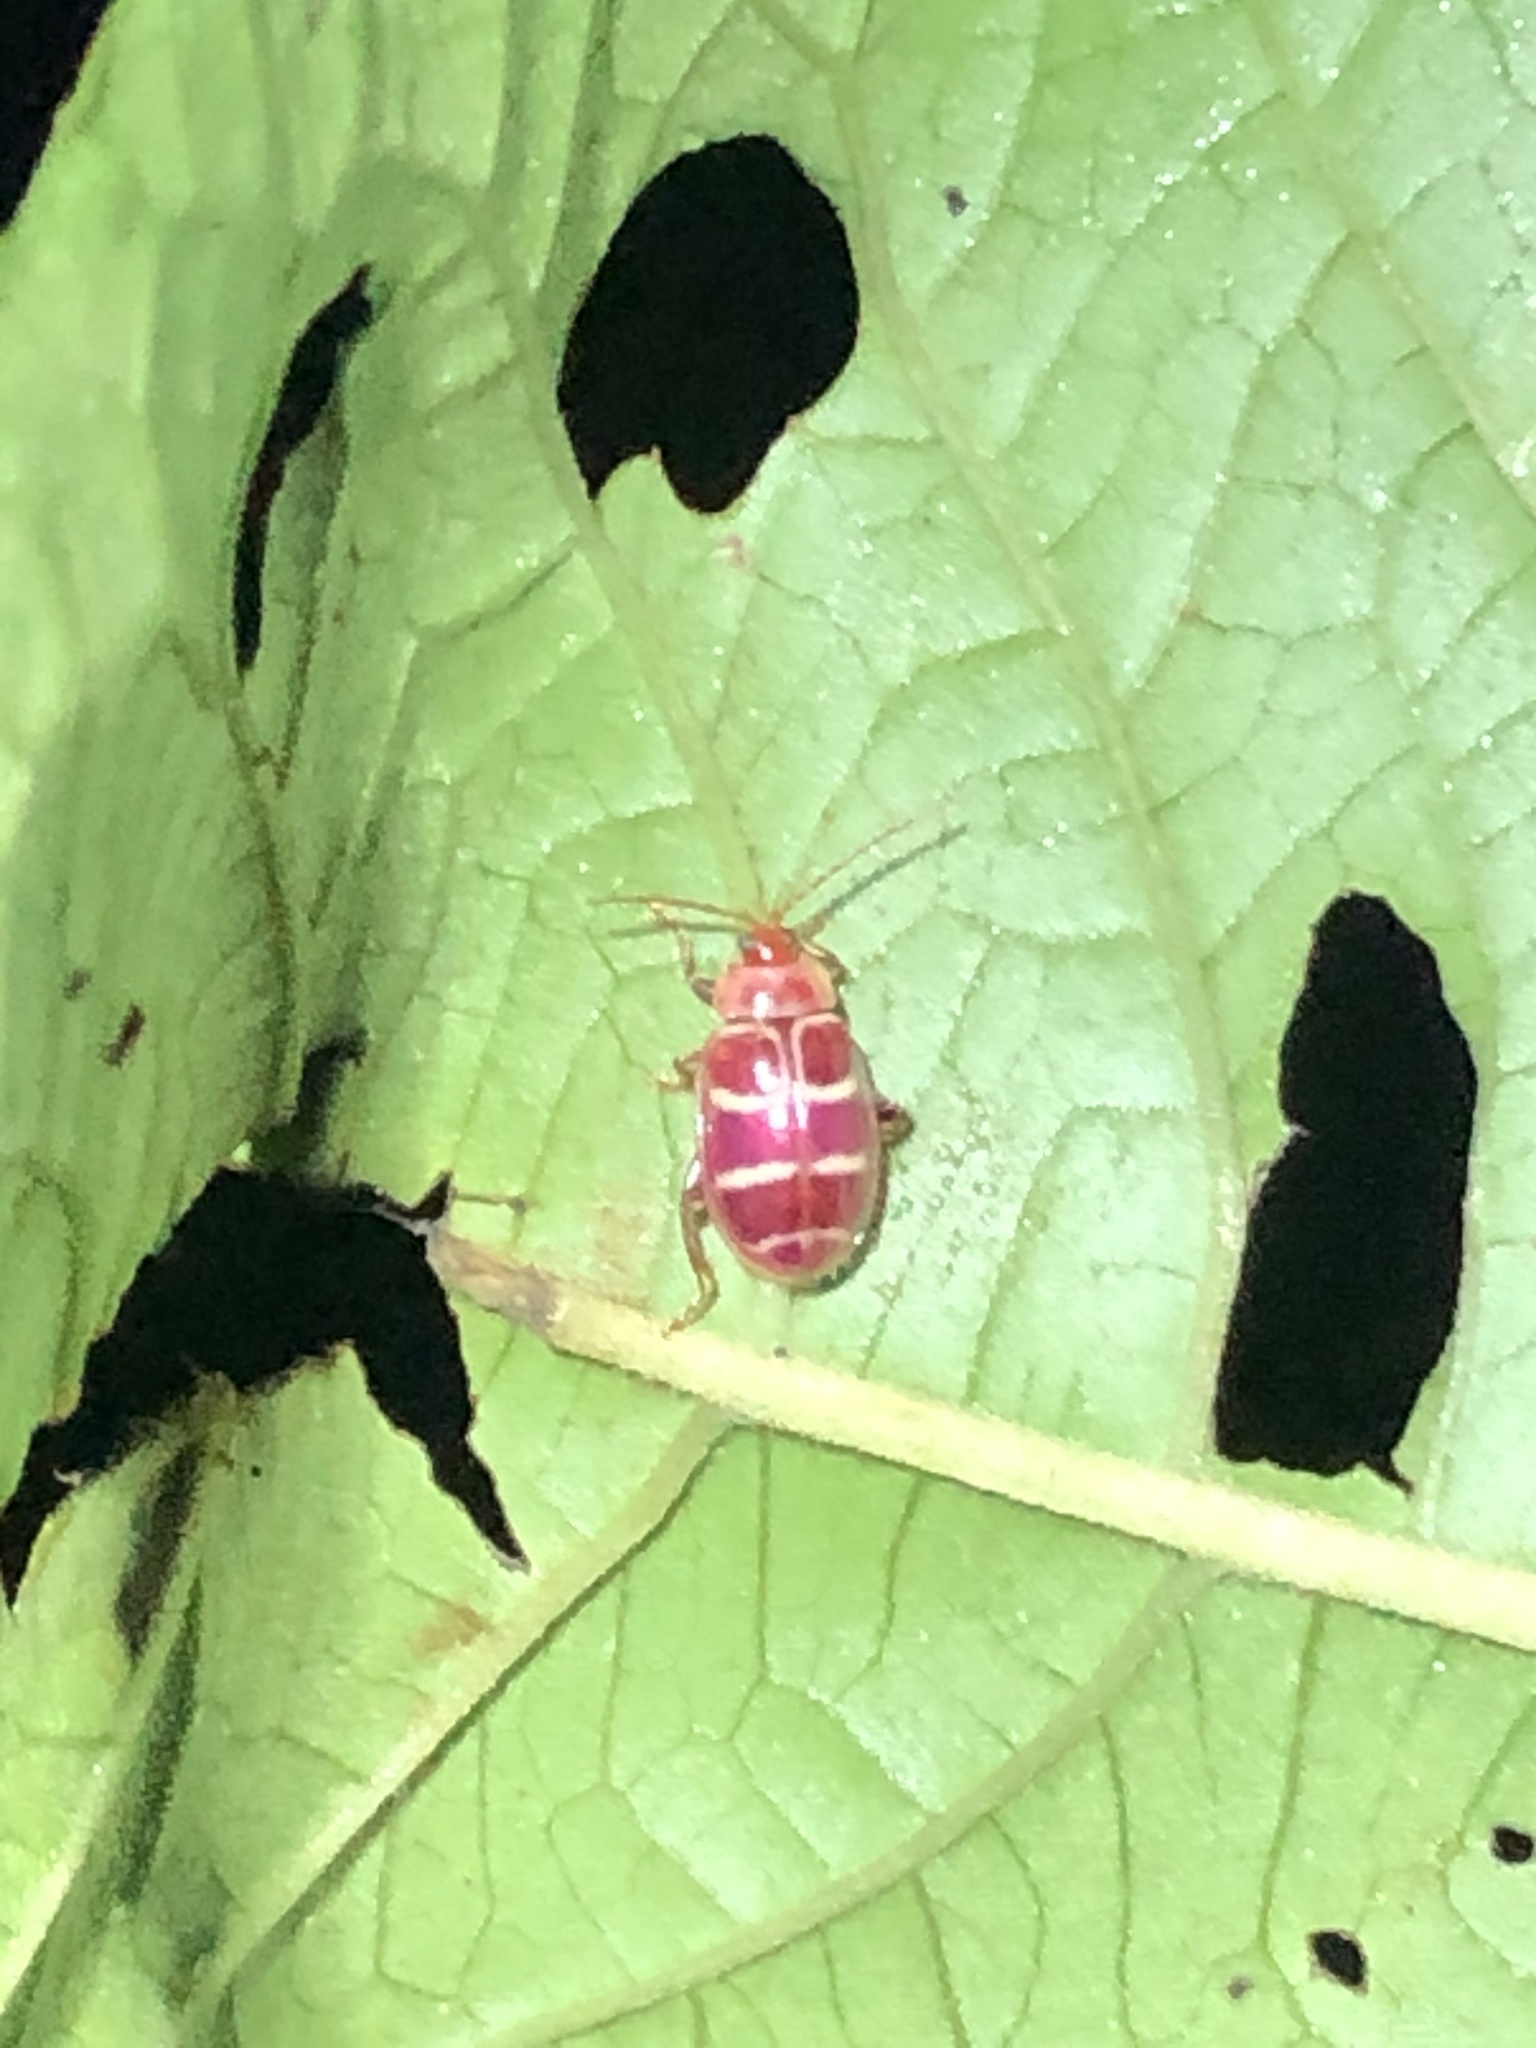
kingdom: Animalia
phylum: Arthropoda
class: Insecta
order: Coleoptera
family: Chrysomelidae
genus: Asphaera
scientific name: Asphaera
